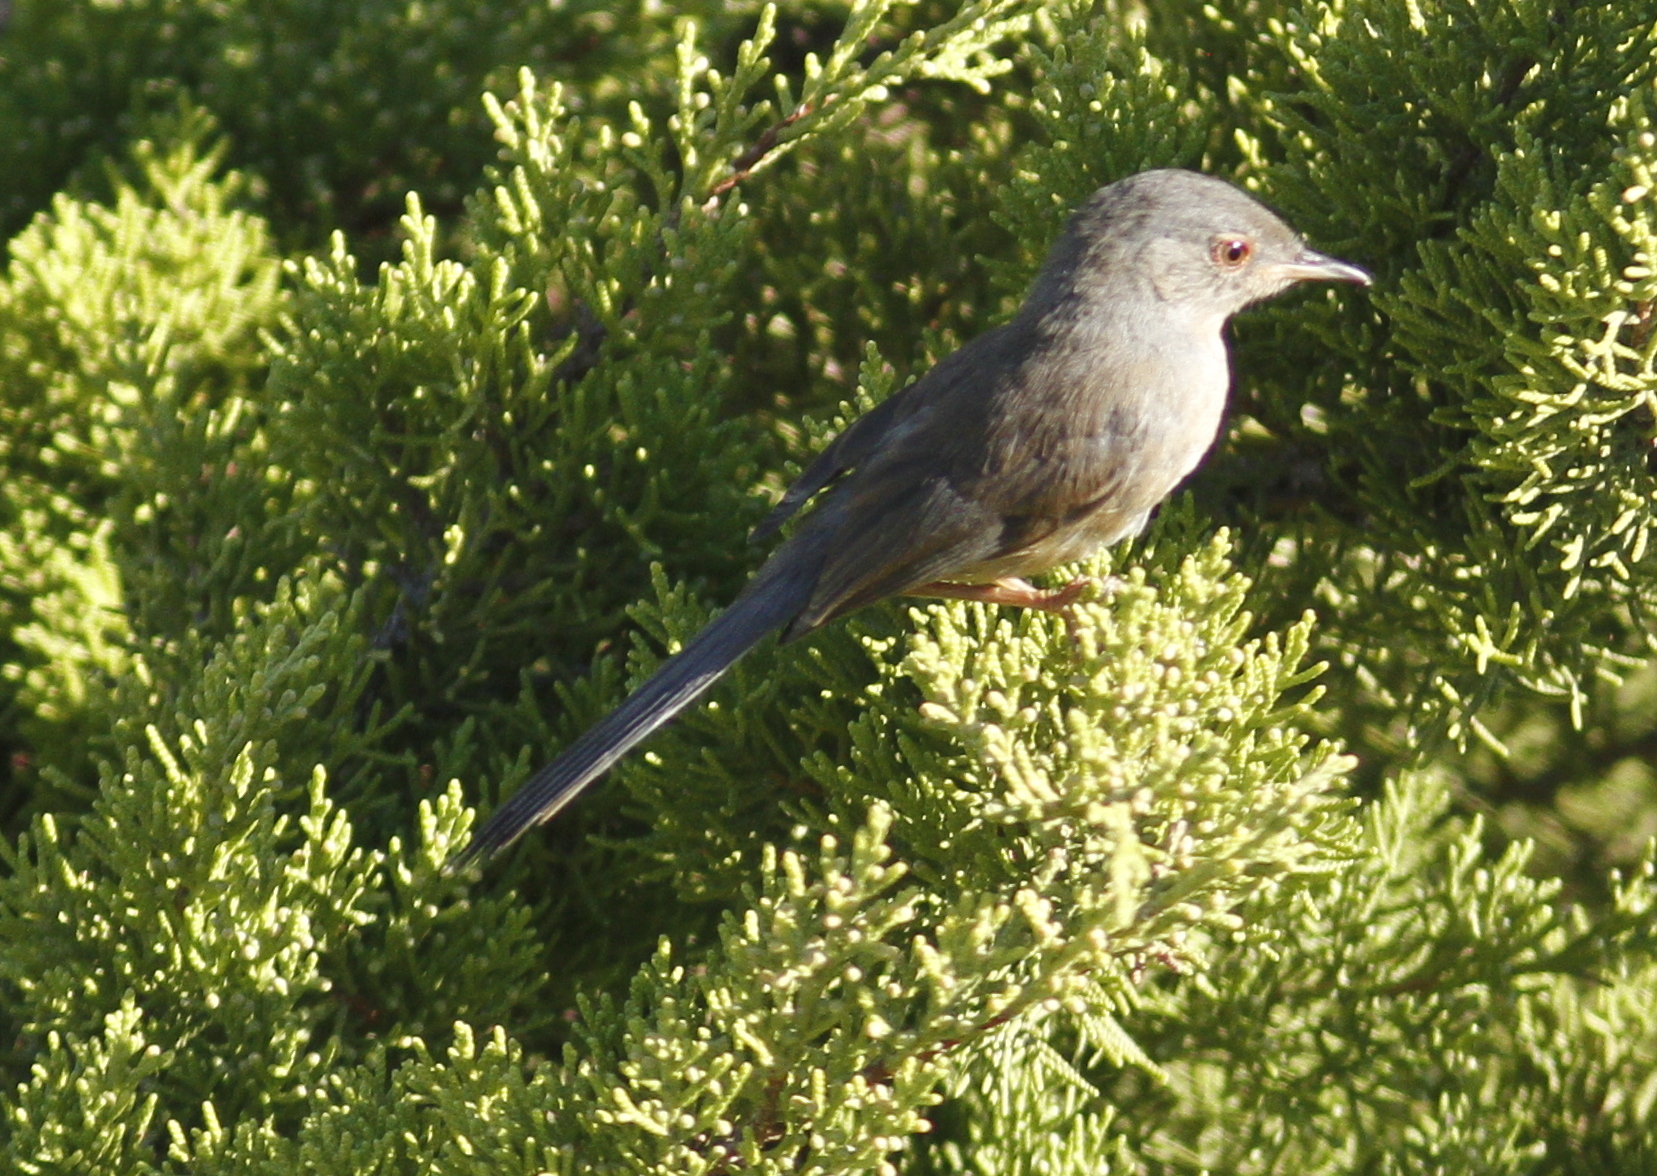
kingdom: Animalia
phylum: Chordata
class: Aves
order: Passeriformes
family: Sylviidae
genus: Sylvia
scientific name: Sylvia undata
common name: Dartford warbler
